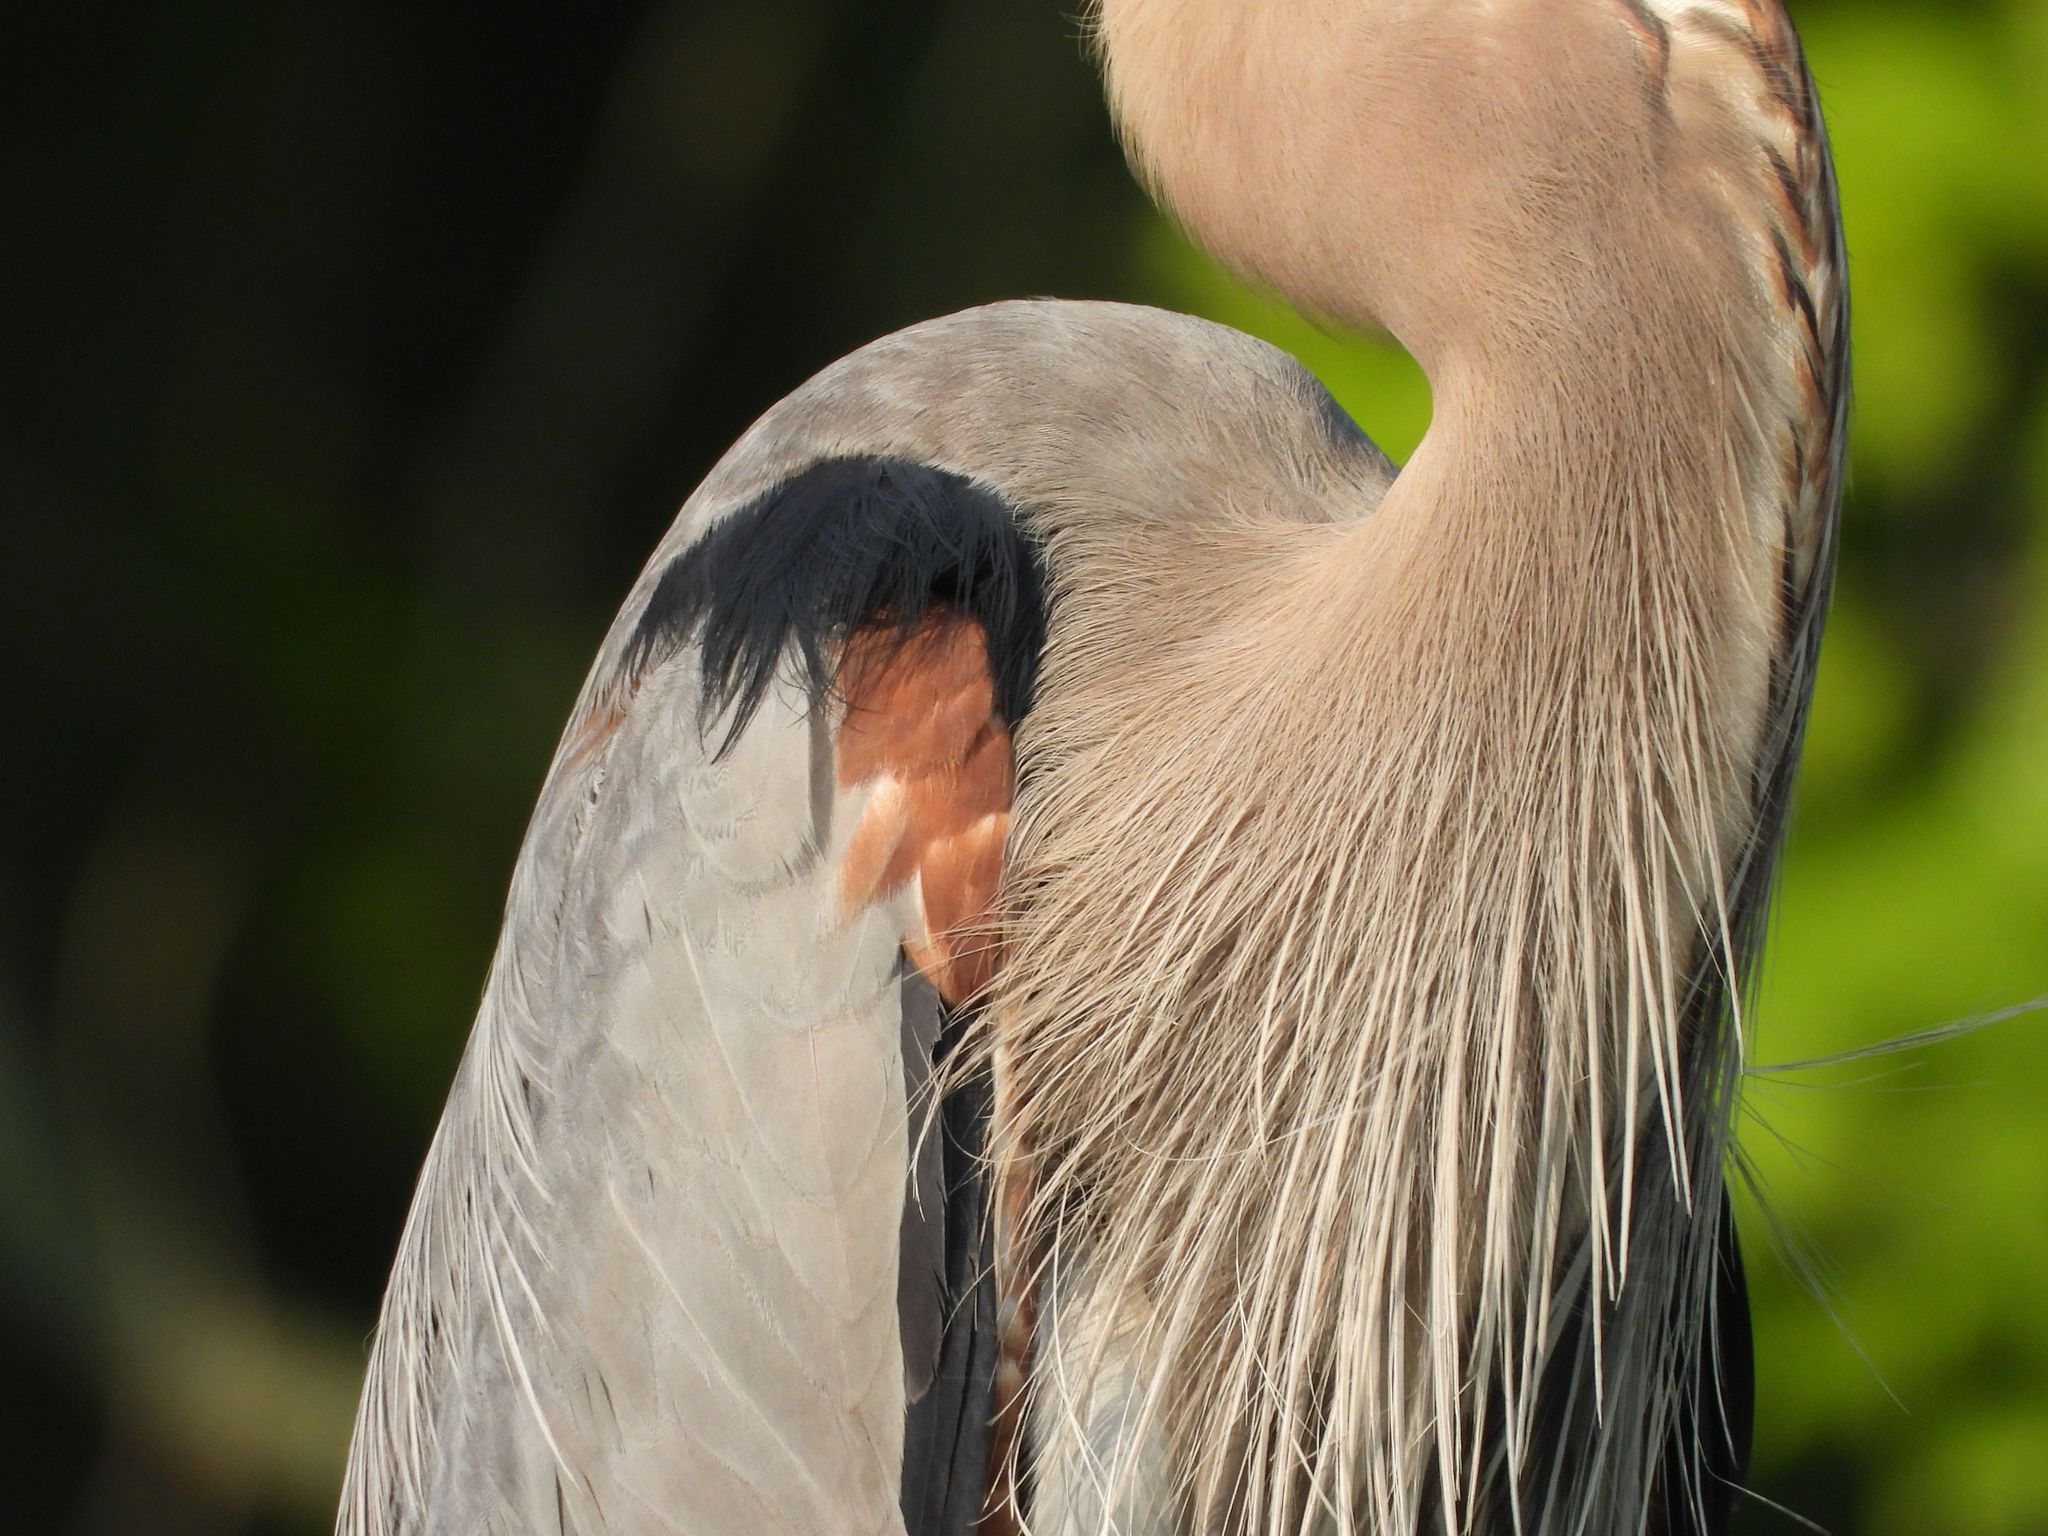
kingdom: Animalia
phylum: Chordata
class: Aves
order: Pelecaniformes
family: Ardeidae
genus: Ardea
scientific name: Ardea herodias
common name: Great blue heron
